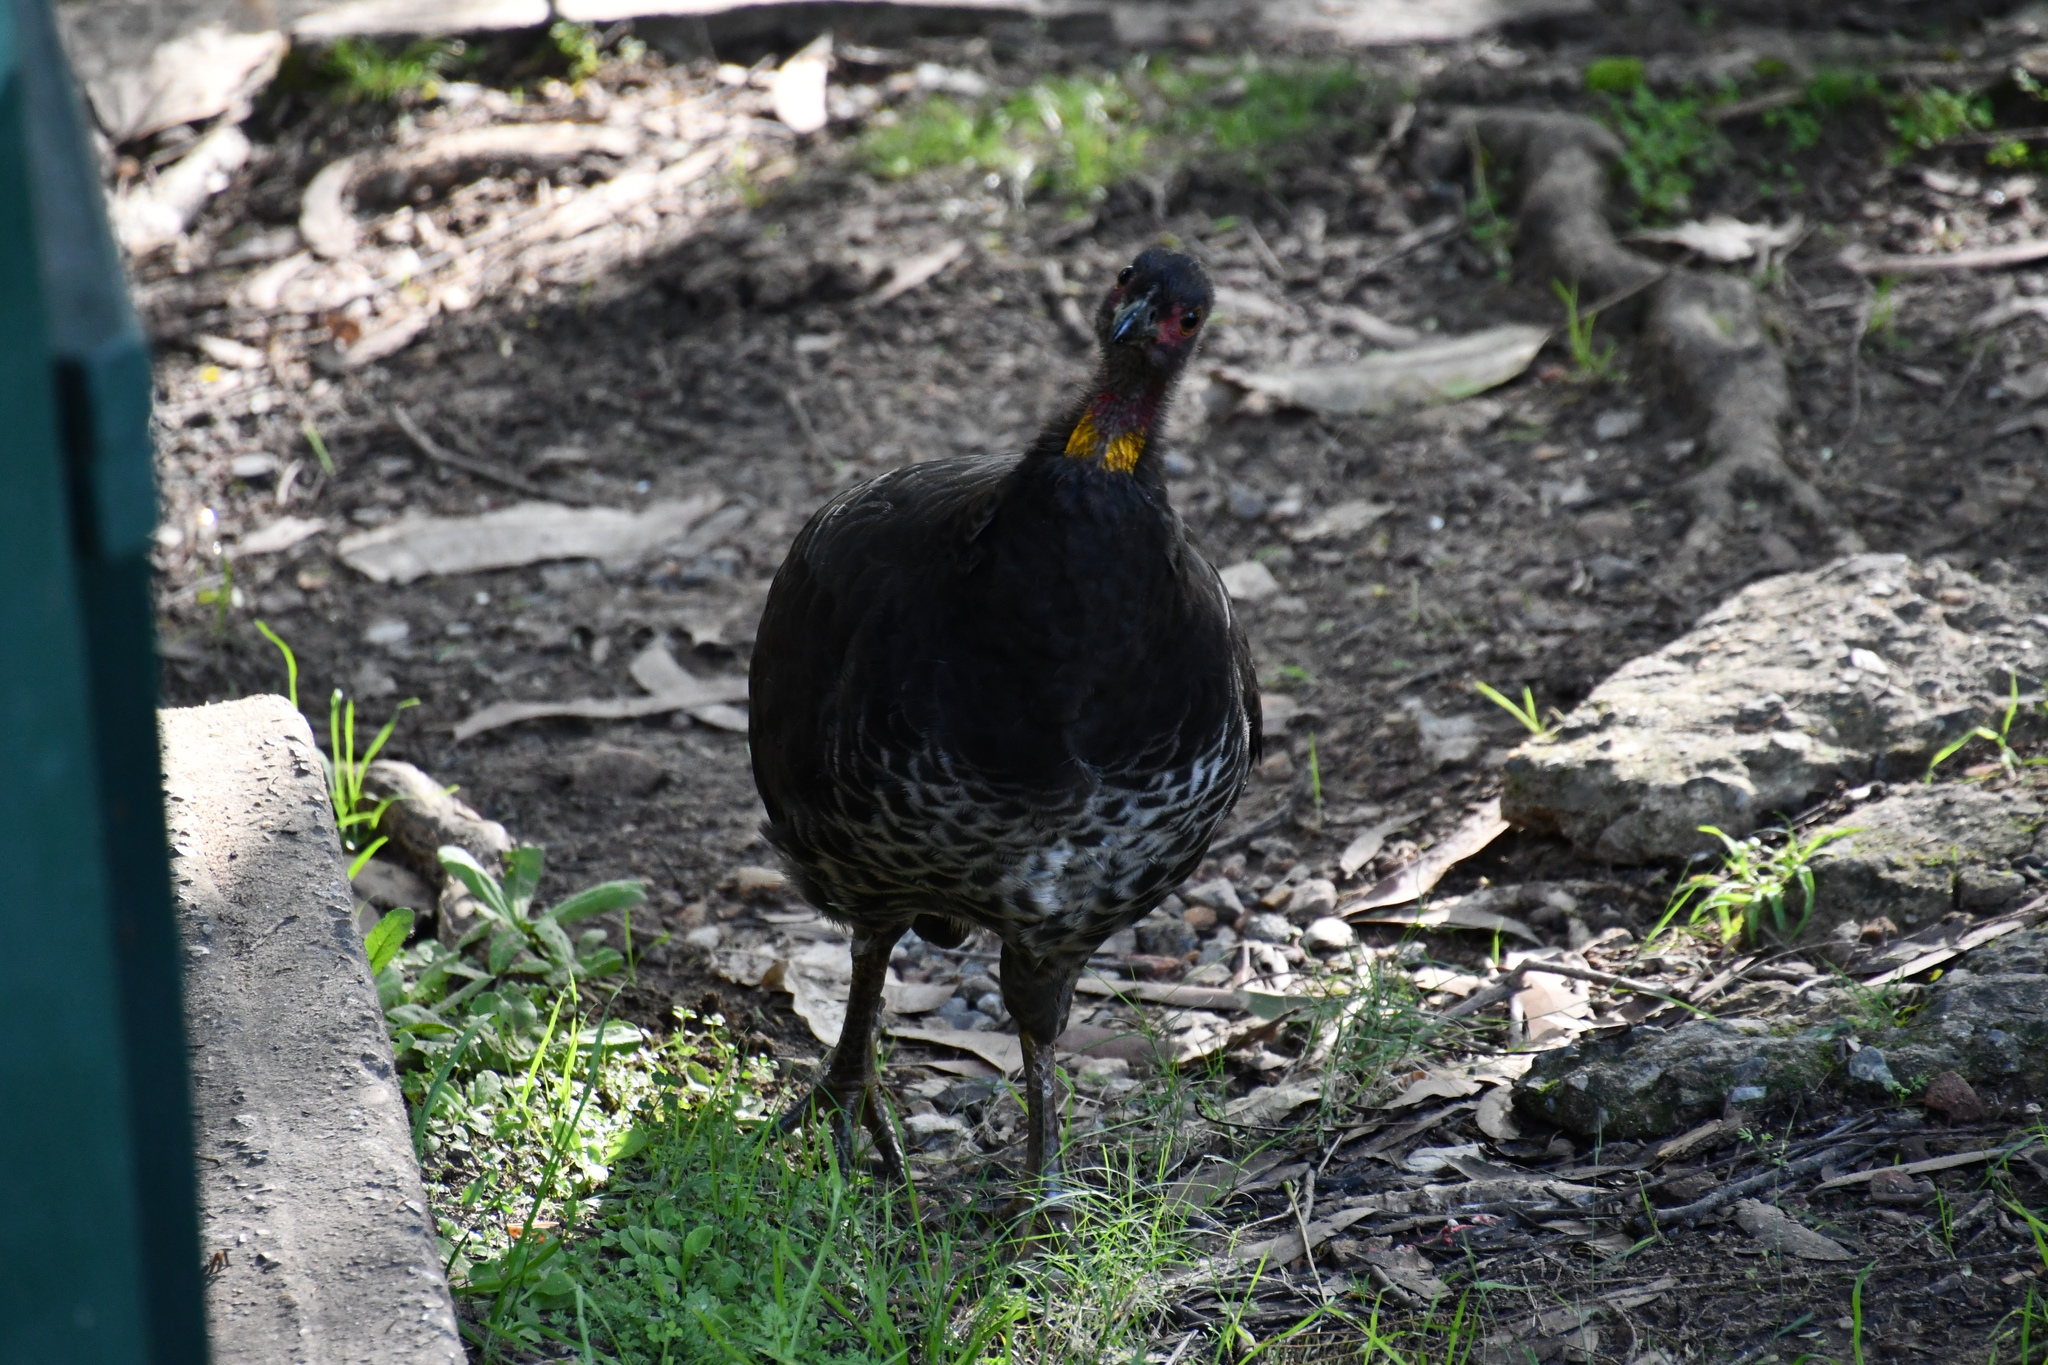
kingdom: Animalia
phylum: Chordata
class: Aves
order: Galliformes
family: Megapodiidae
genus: Alectura
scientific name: Alectura lathami
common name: Australian brushturkey
